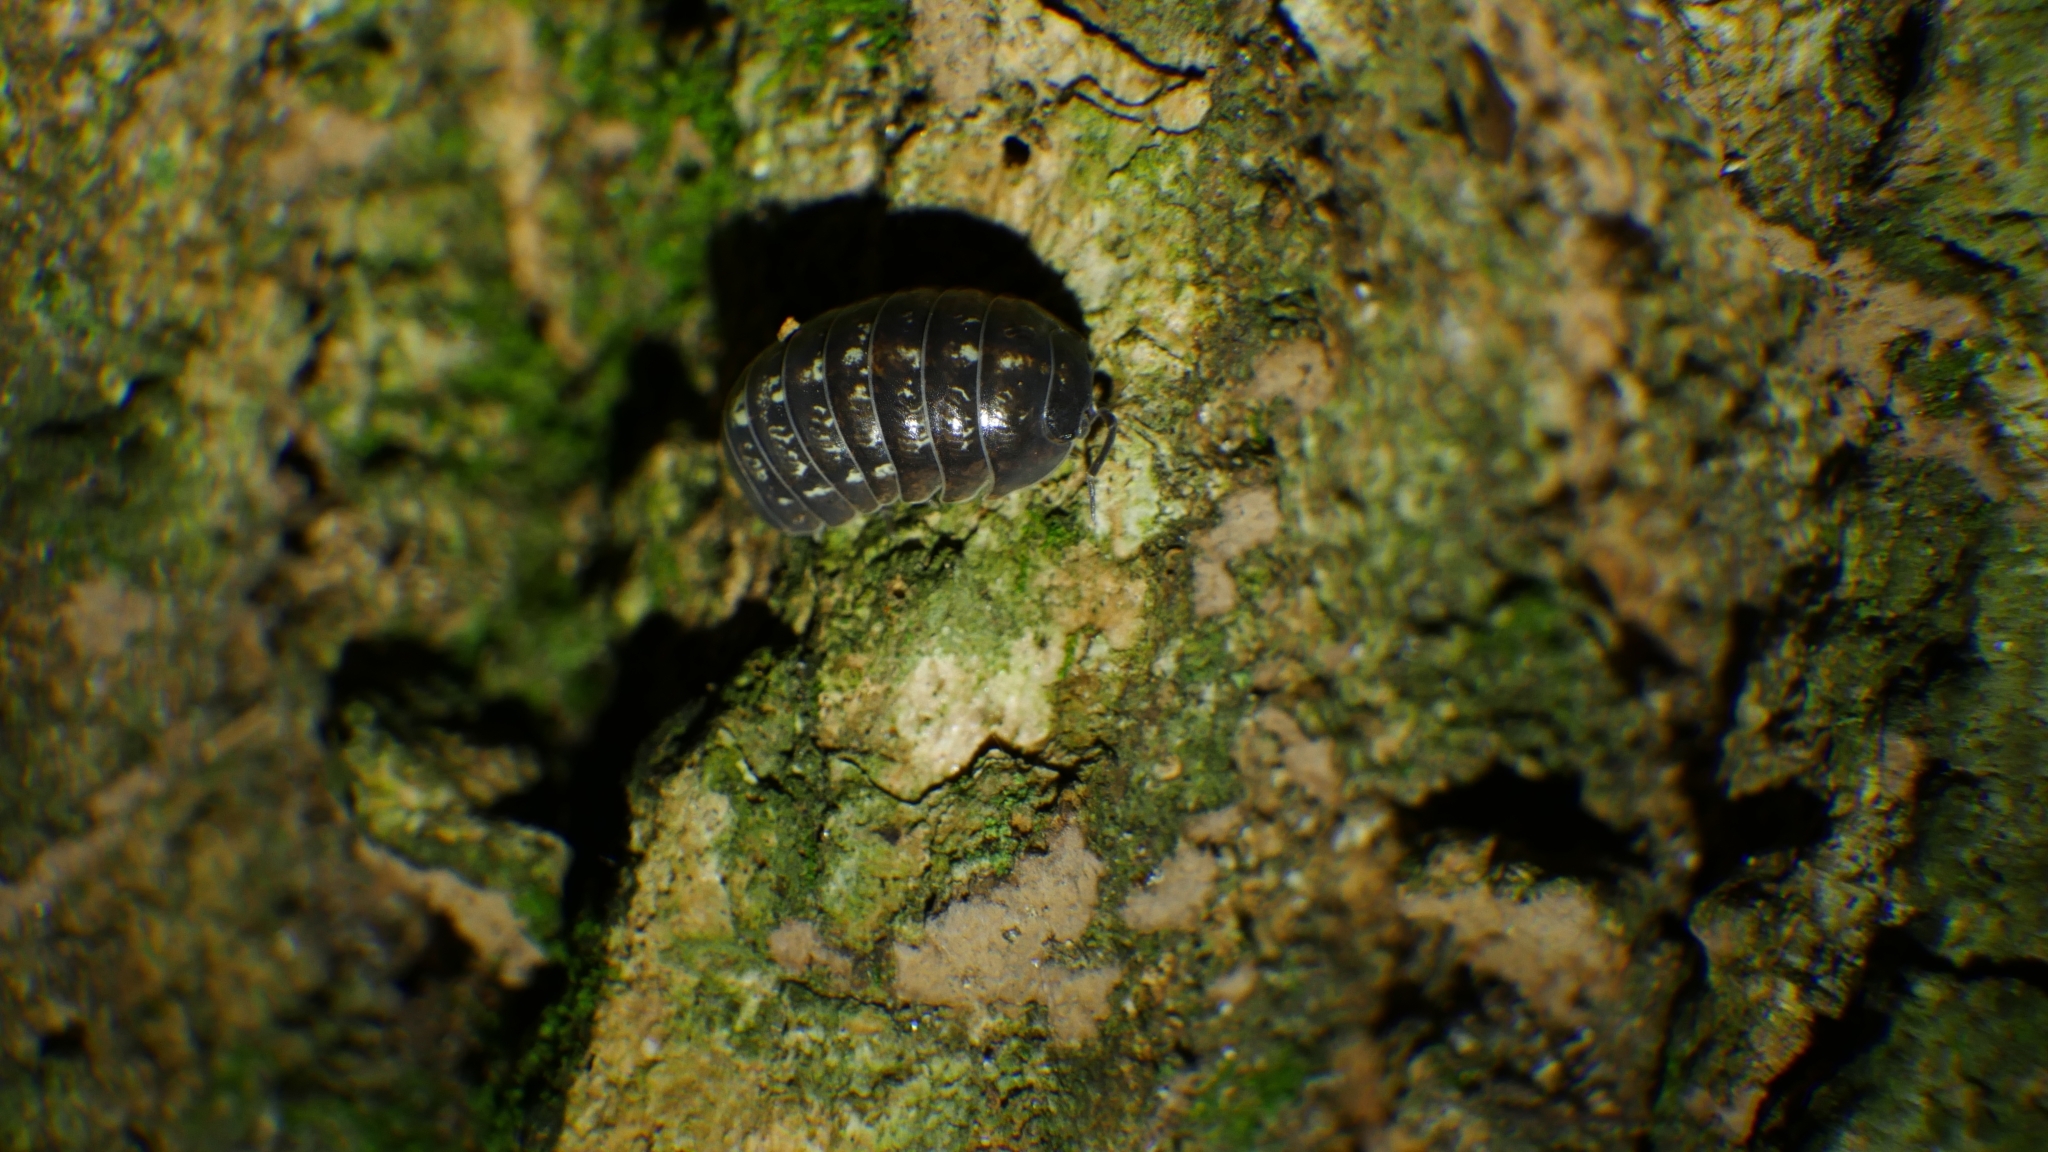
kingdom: Animalia
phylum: Arthropoda
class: Malacostraca
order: Isopoda
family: Armadillidiidae
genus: Armadillidium
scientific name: Armadillidium vulgare
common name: Common pill woodlouse
